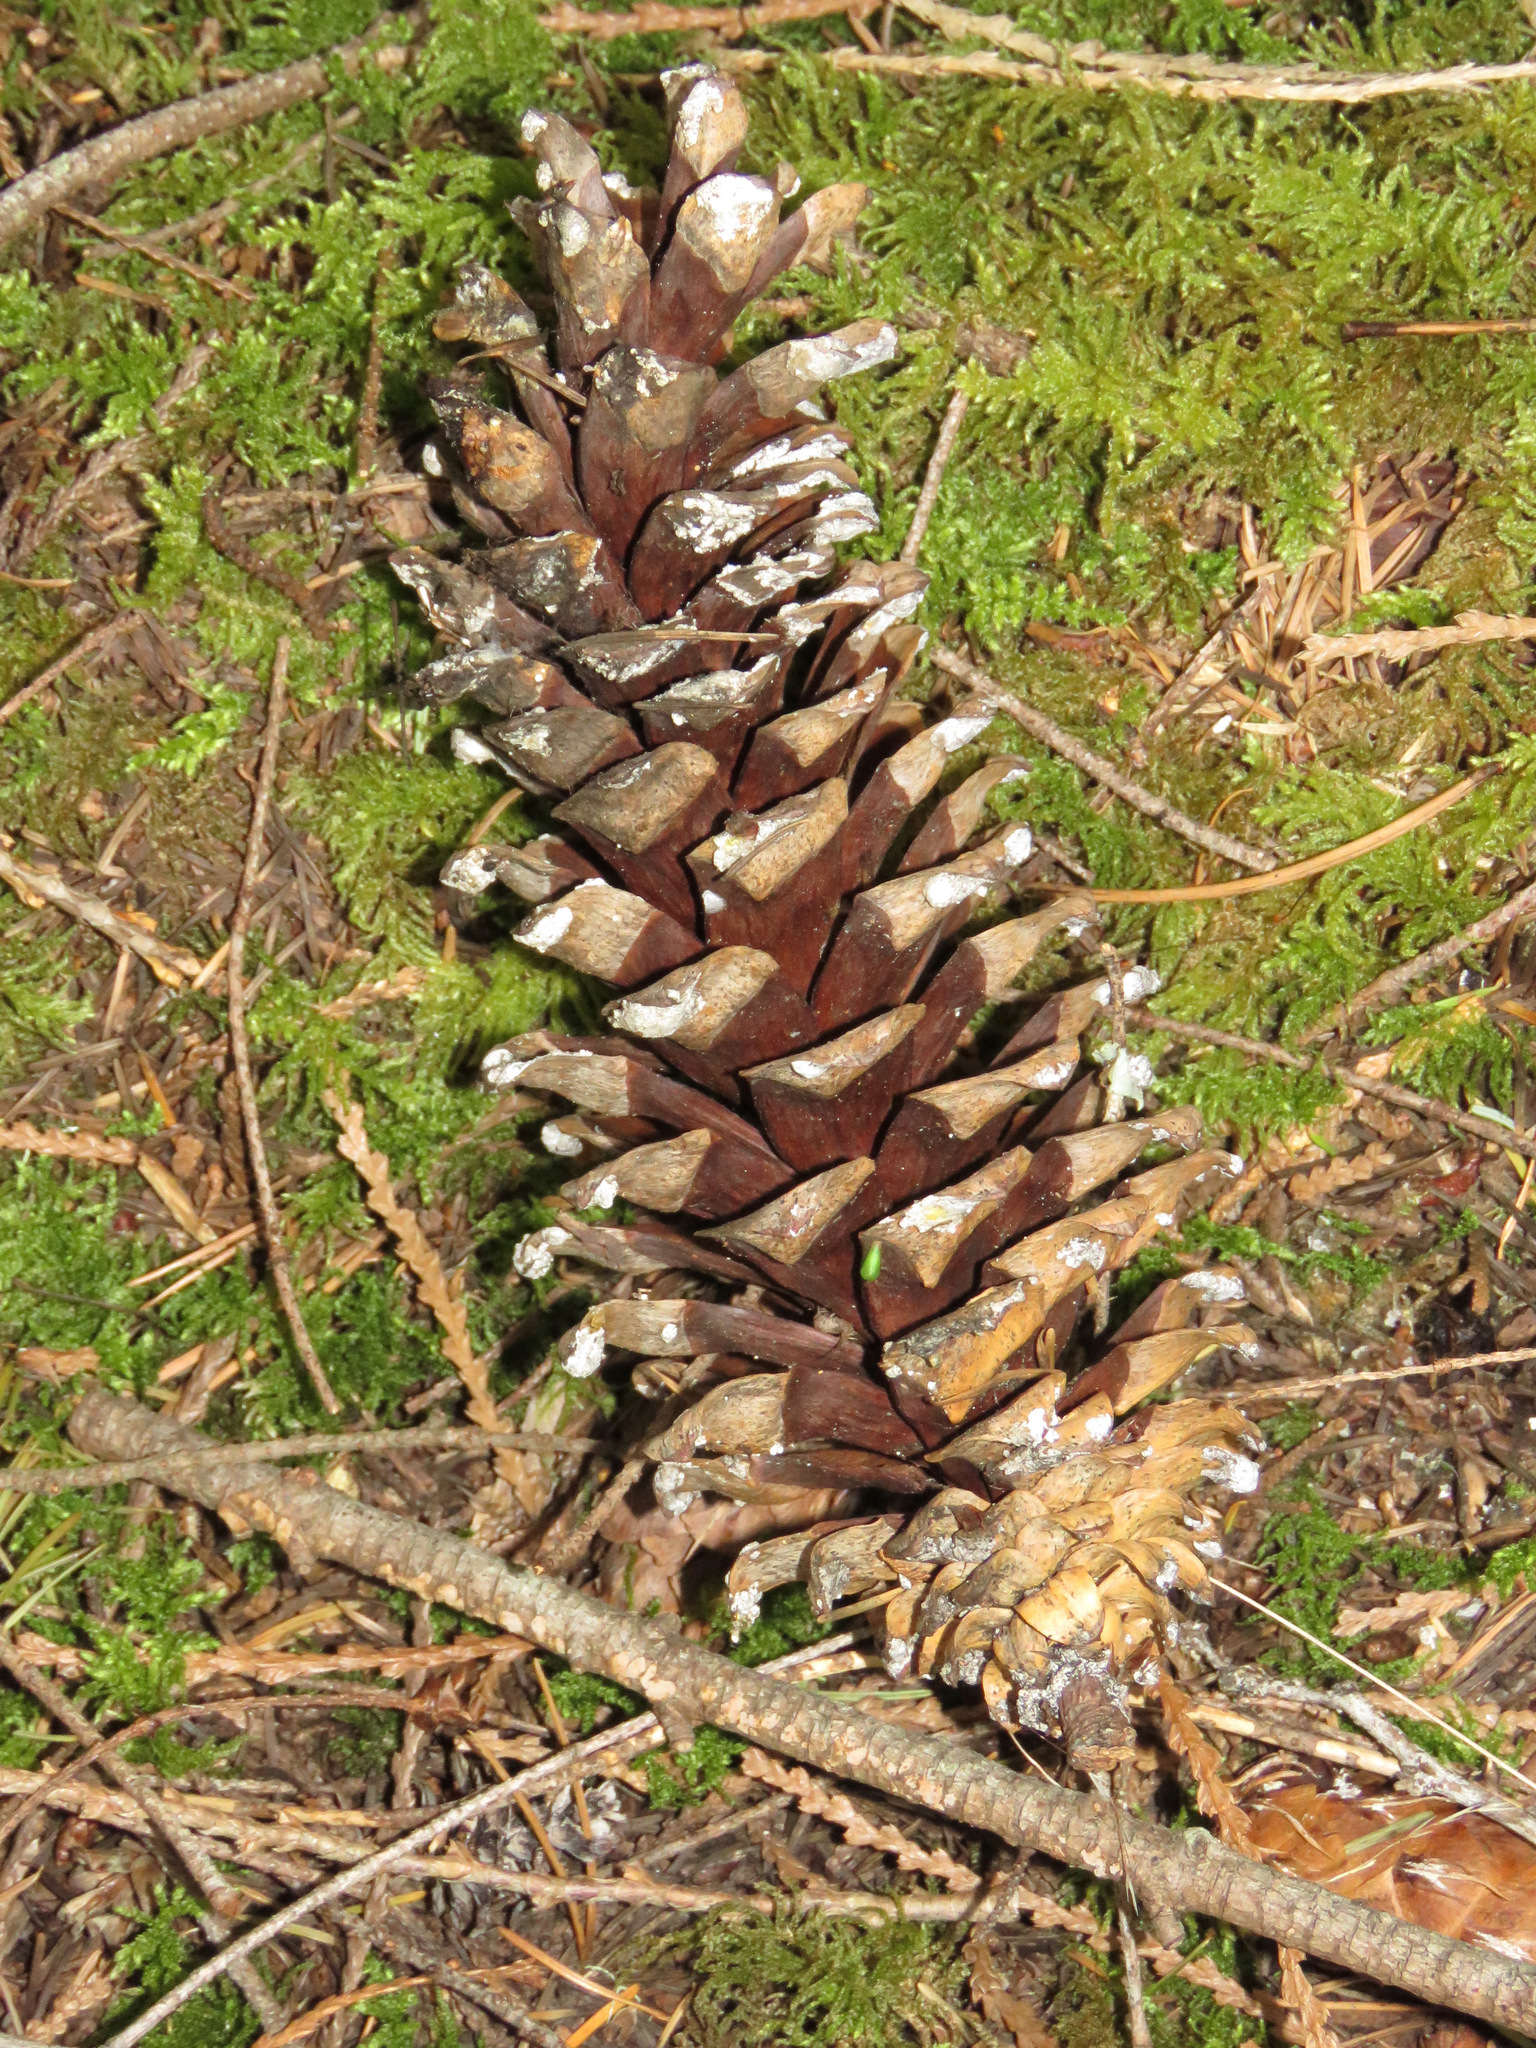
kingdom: Plantae
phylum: Tracheophyta
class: Pinopsida
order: Pinales
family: Pinaceae
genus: Pinus
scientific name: Pinus monticola
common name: Western white pine
